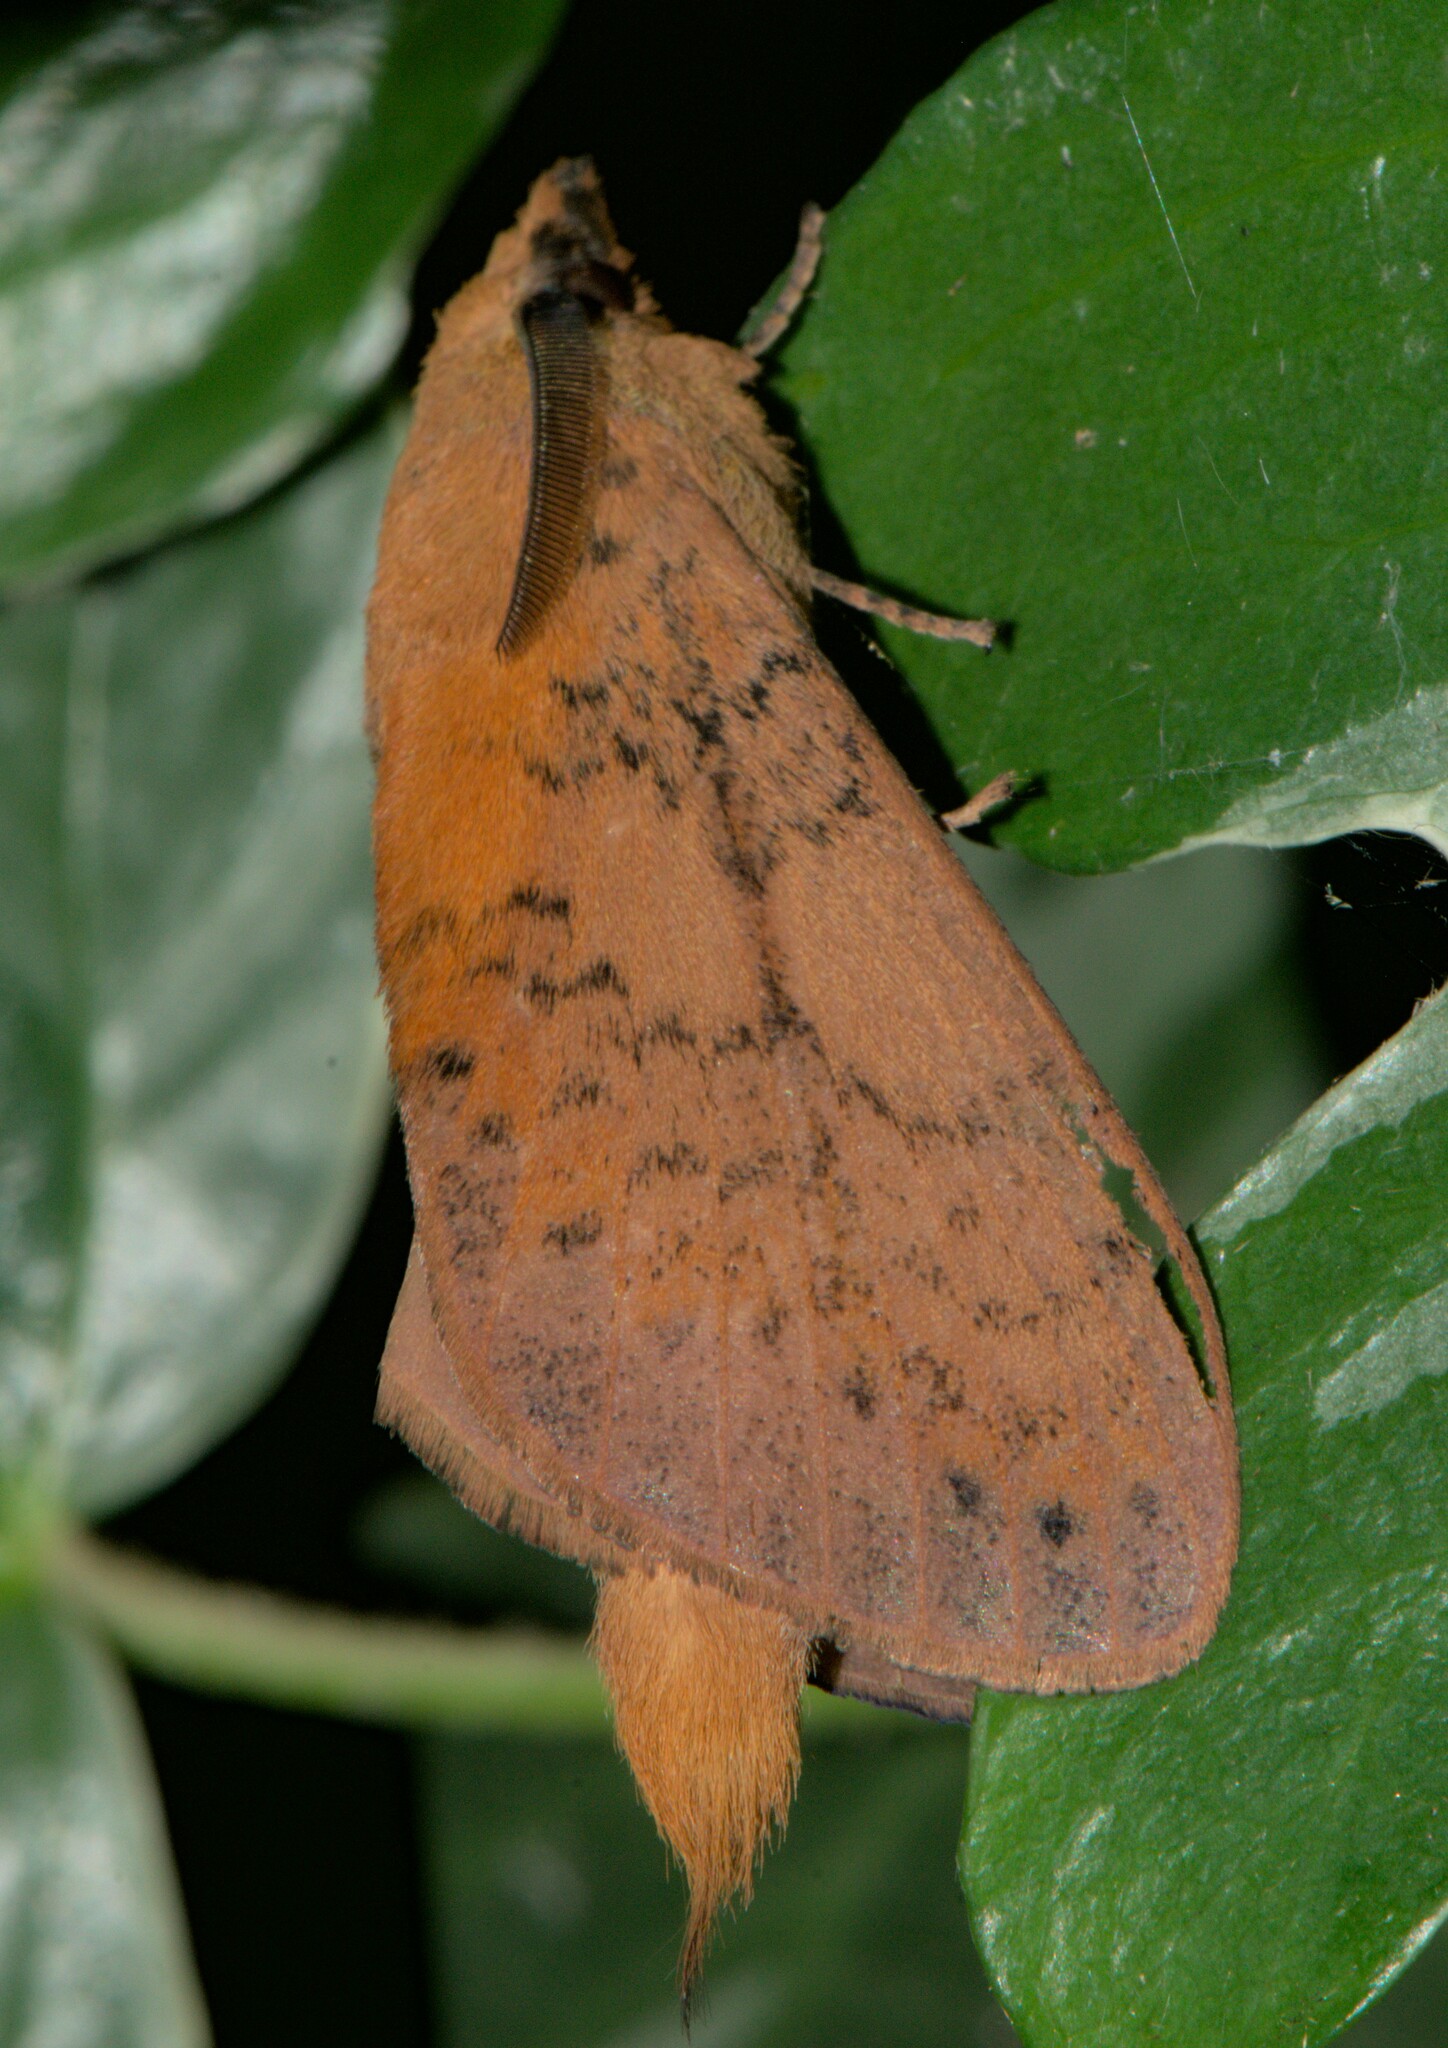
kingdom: Animalia
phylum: Arthropoda
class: Insecta
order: Lepidoptera
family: Lasiocampidae
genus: Kunugia
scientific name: Kunugia lineata
